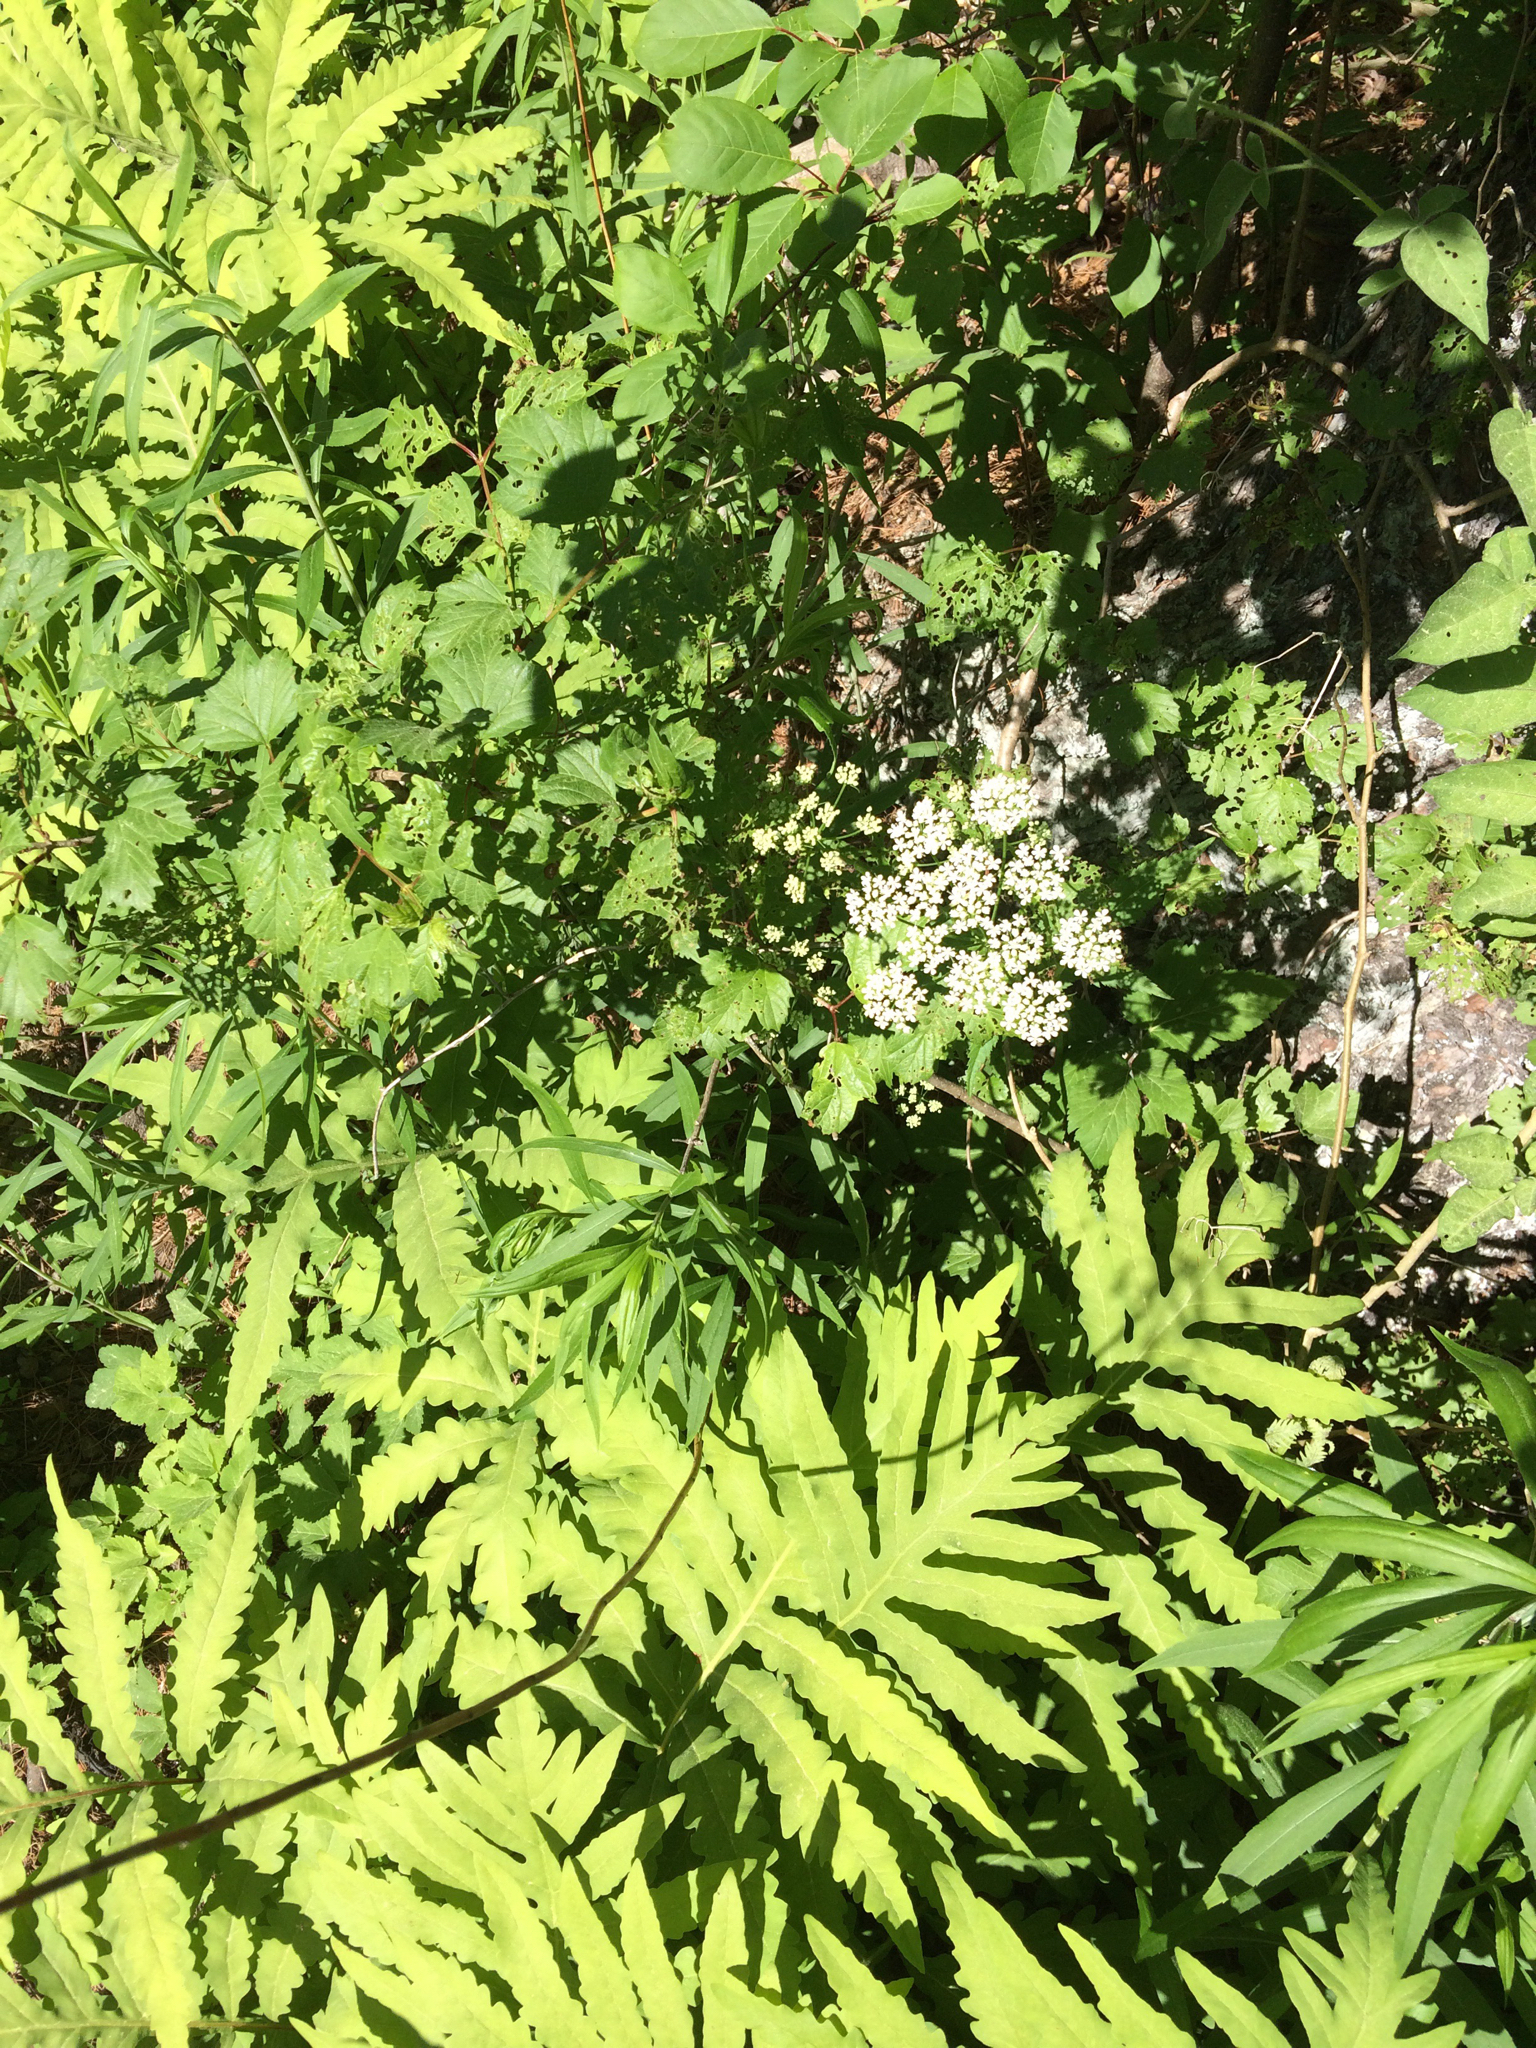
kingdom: Plantae
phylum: Tracheophyta
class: Magnoliopsida
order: Apiales
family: Apiaceae
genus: Aegopodium
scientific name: Aegopodium podagraria
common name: Ground-elder
